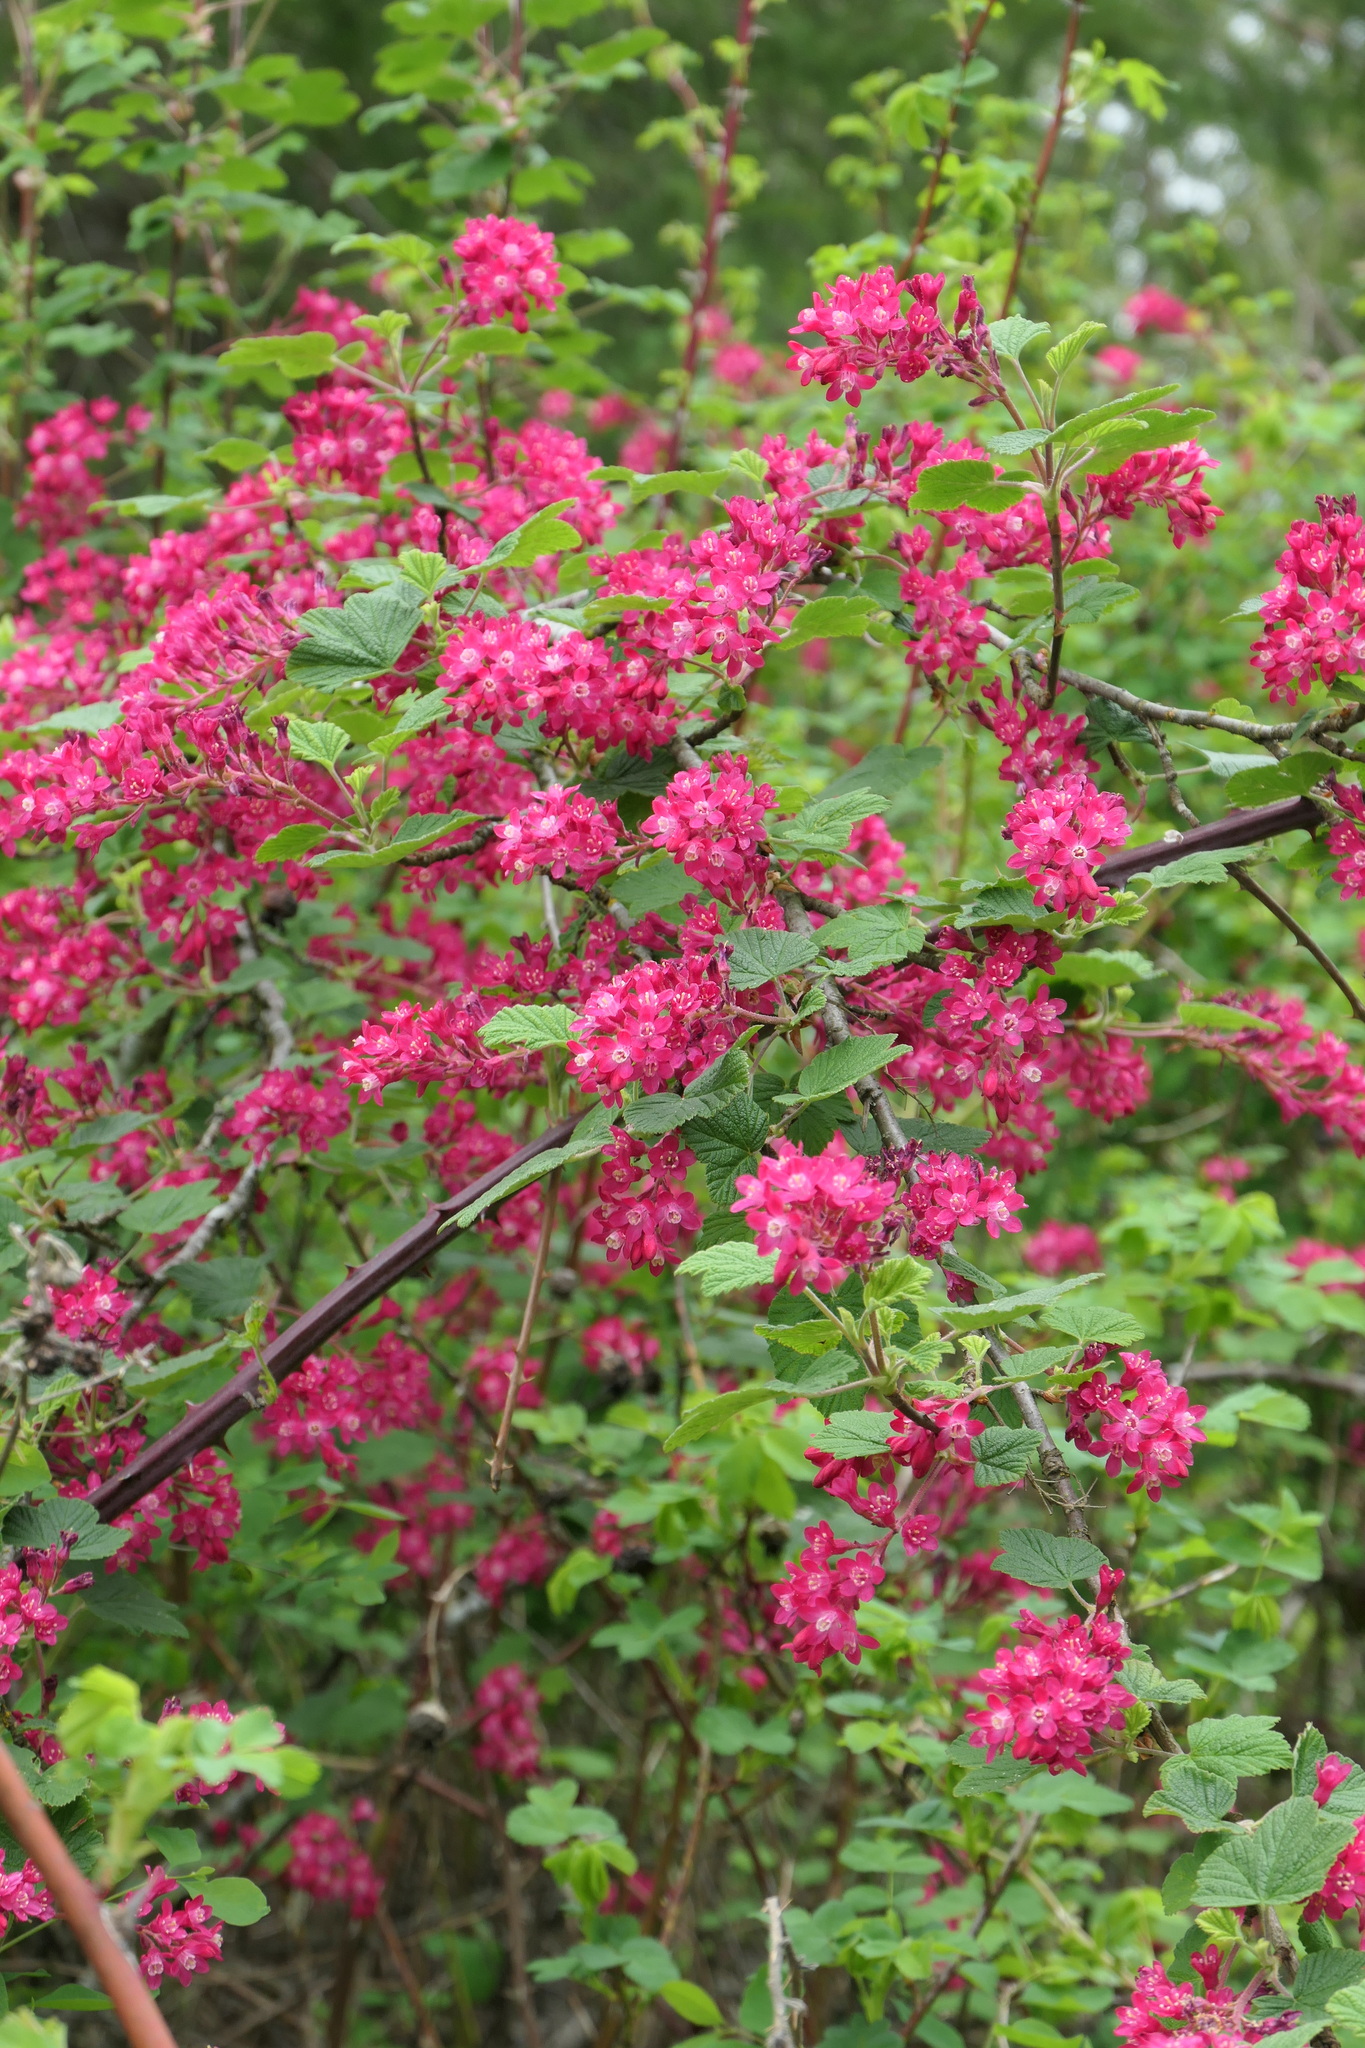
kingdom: Plantae
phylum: Tracheophyta
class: Magnoliopsida
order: Saxifragales
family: Grossulariaceae
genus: Ribes
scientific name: Ribes sanguineum
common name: Flowering currant
